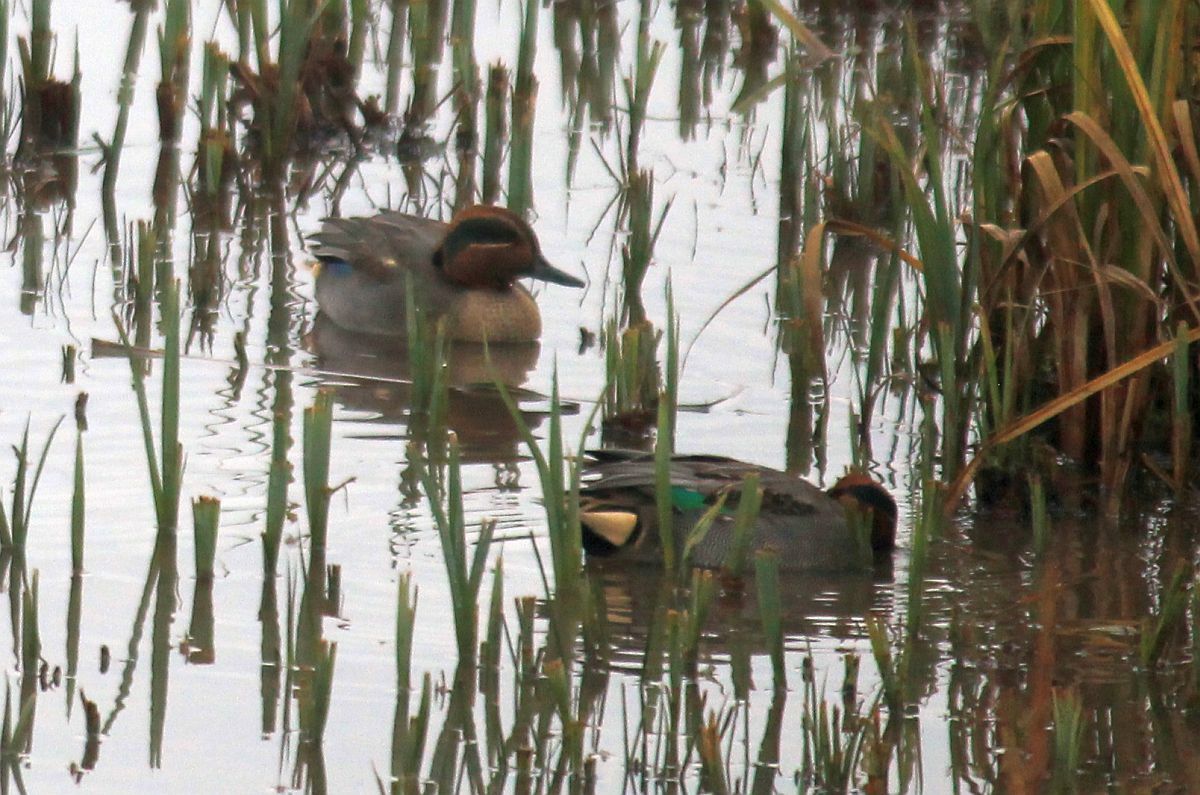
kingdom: Animalia
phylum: Chordata
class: Aves
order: Anseriformes
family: Anatidae
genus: Anas
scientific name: Anas crecca
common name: Eurasian teal
